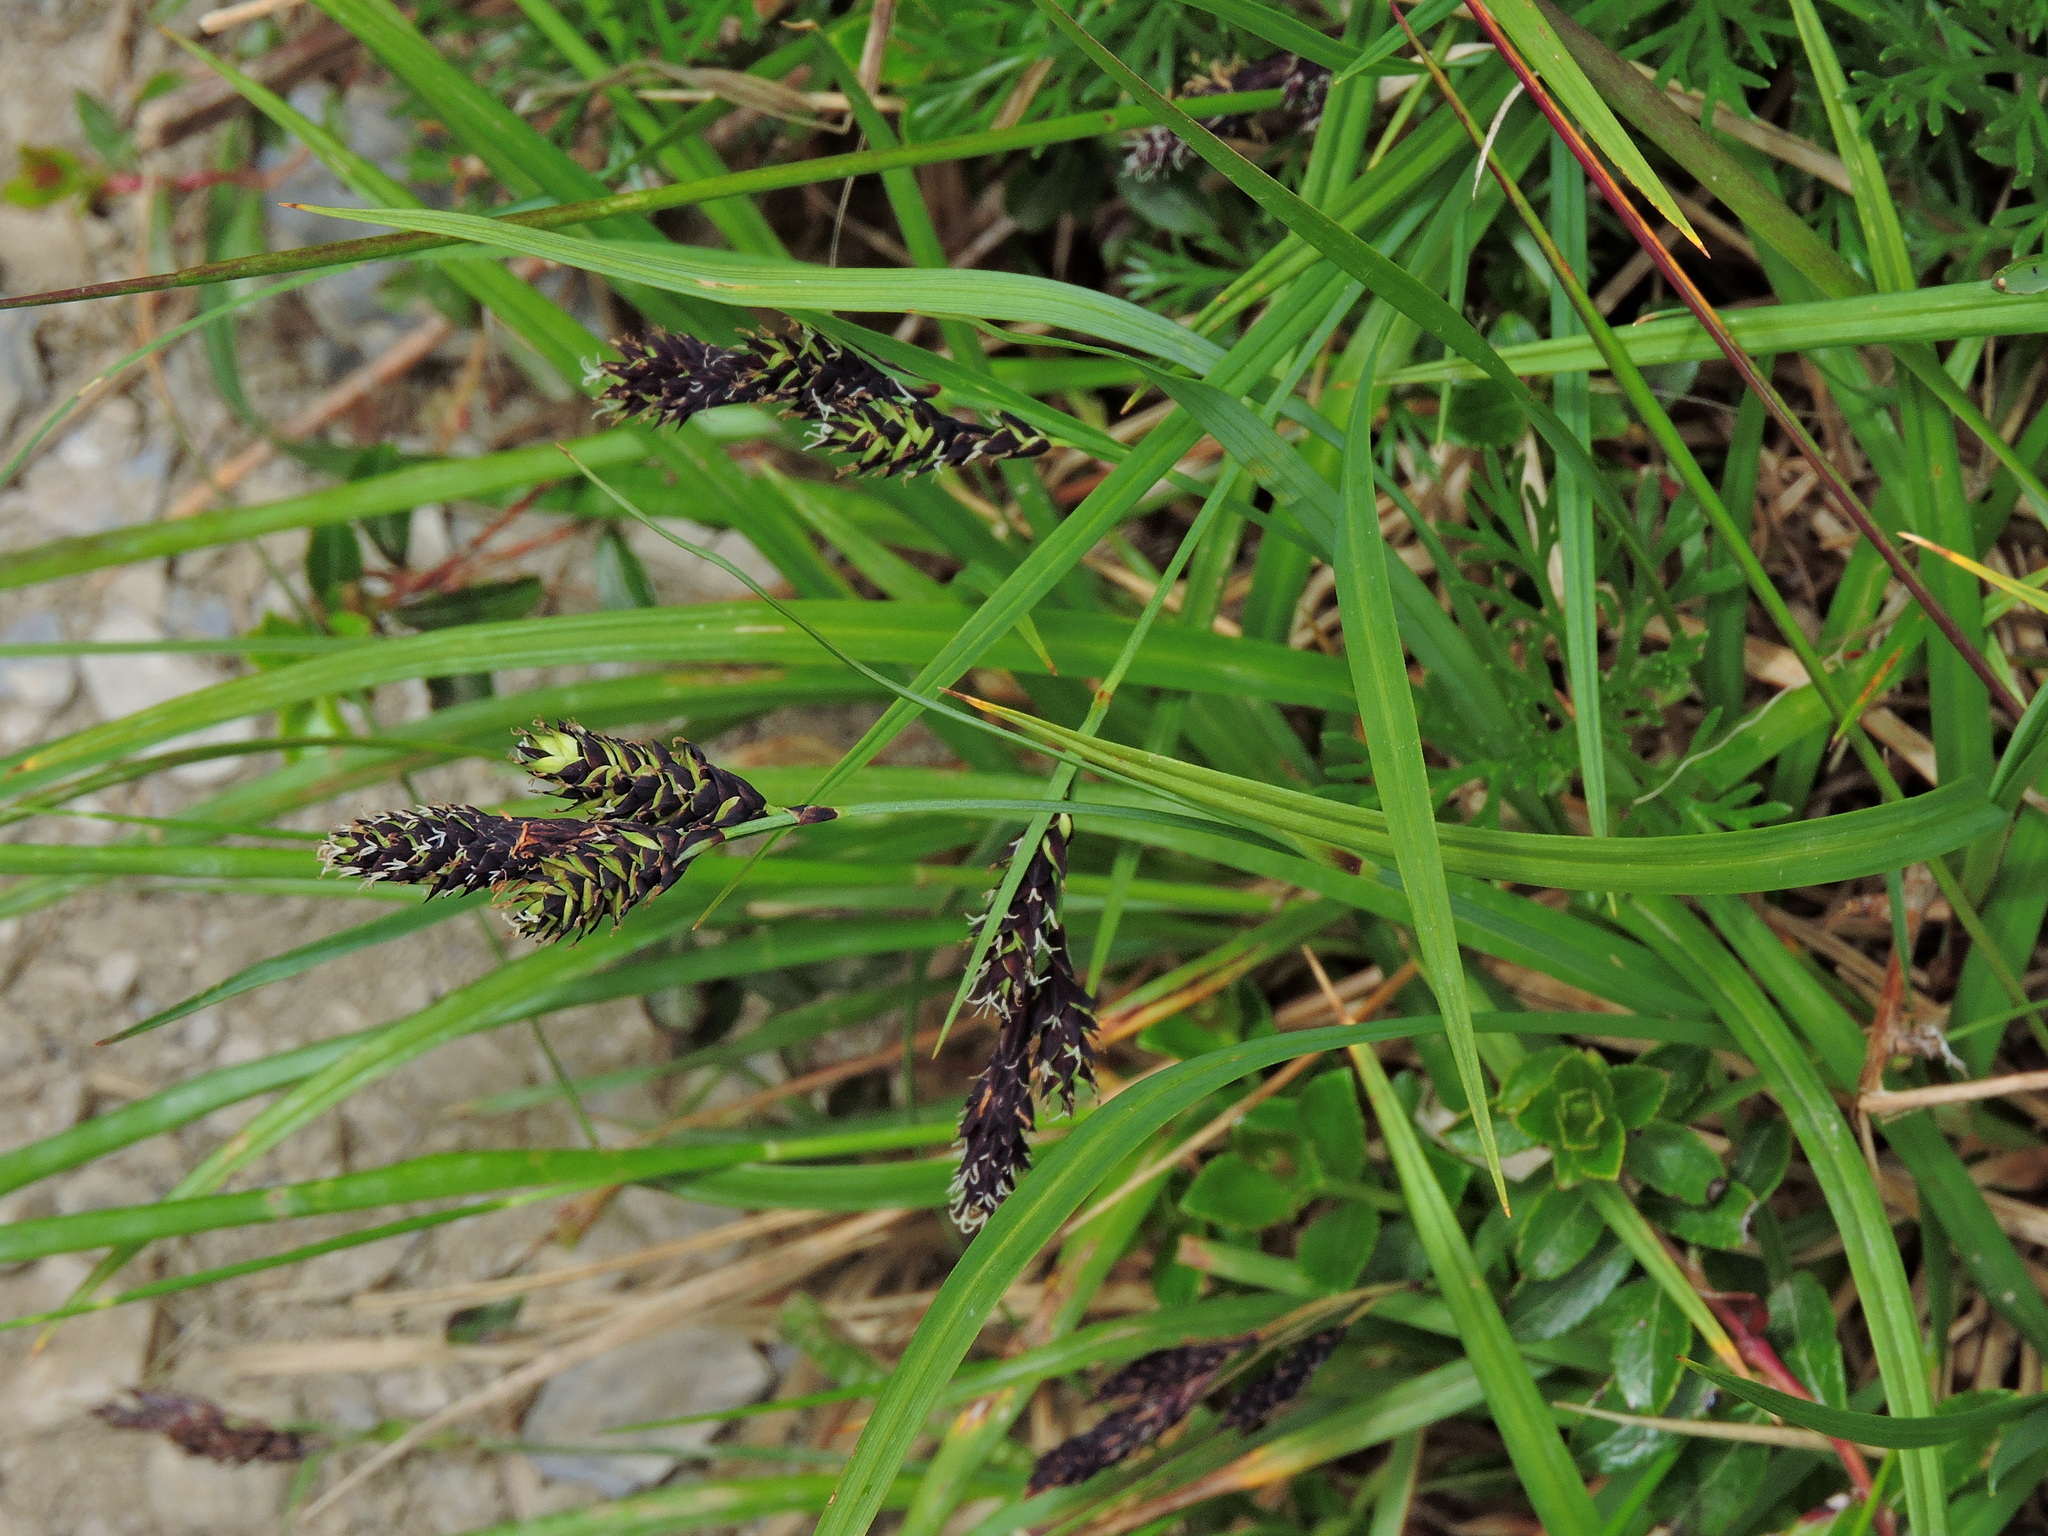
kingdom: Plantae
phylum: Tracheophyta
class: Liliopsida
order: Poales
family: Cyperaceae
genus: Carex
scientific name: Carex atrata
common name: Black alpine sedge
